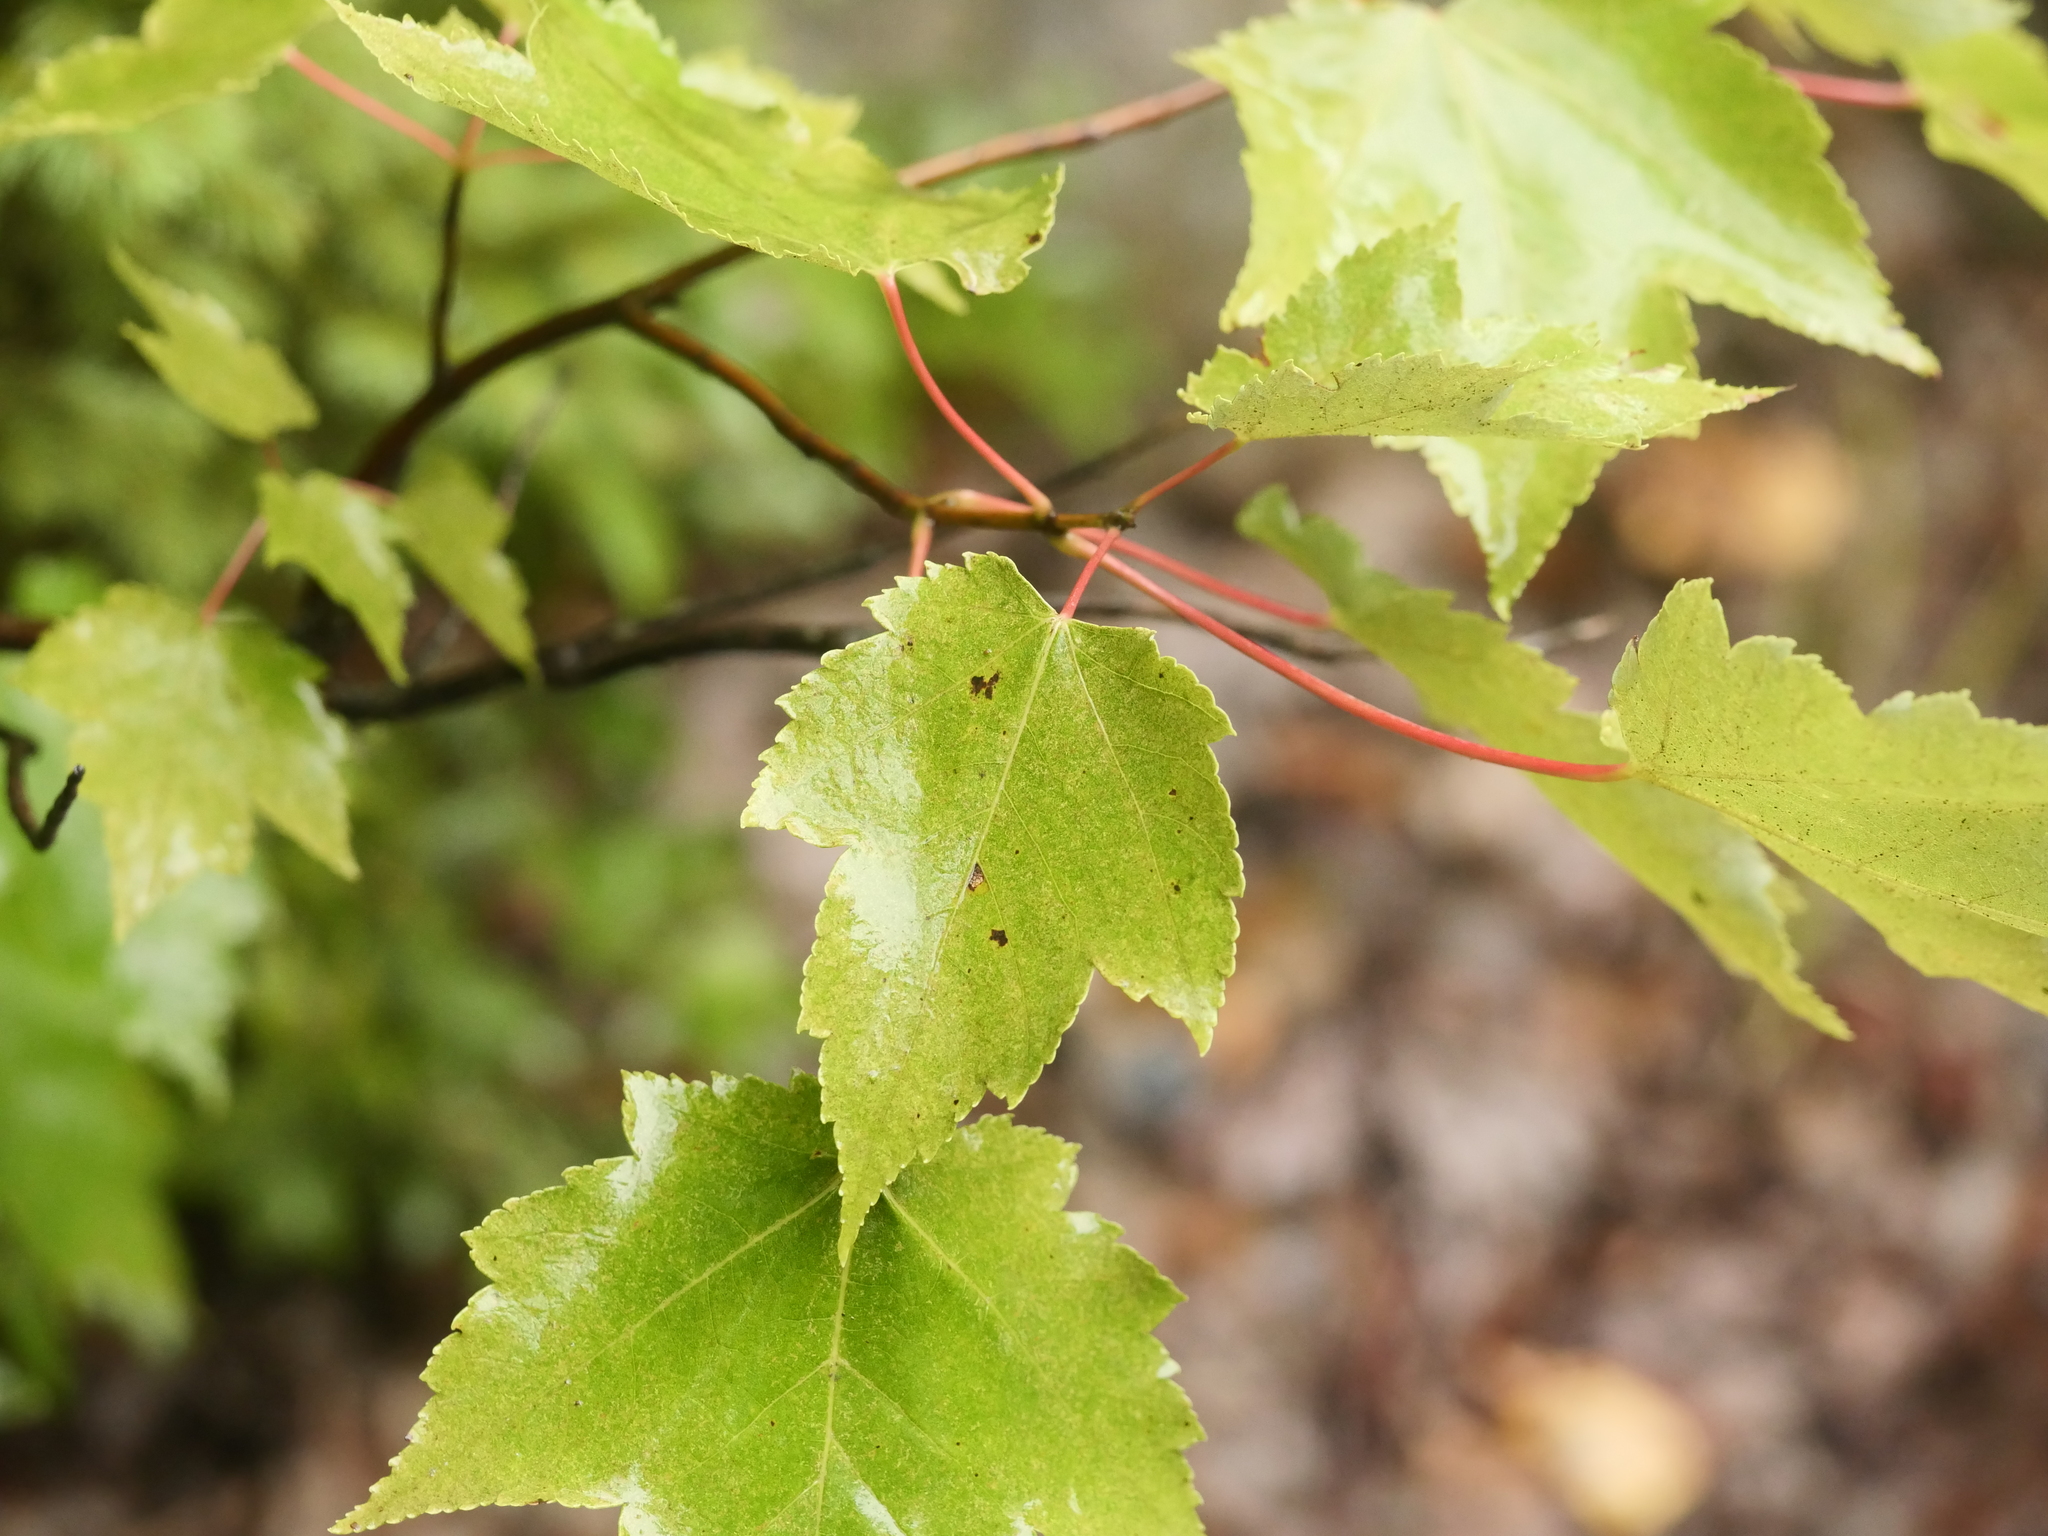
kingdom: Plantae
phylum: Tracheophyta
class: Magnoliopsida
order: Sapindales
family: Sapindaceae
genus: Acer
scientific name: Acer rubrum
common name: Red maple
